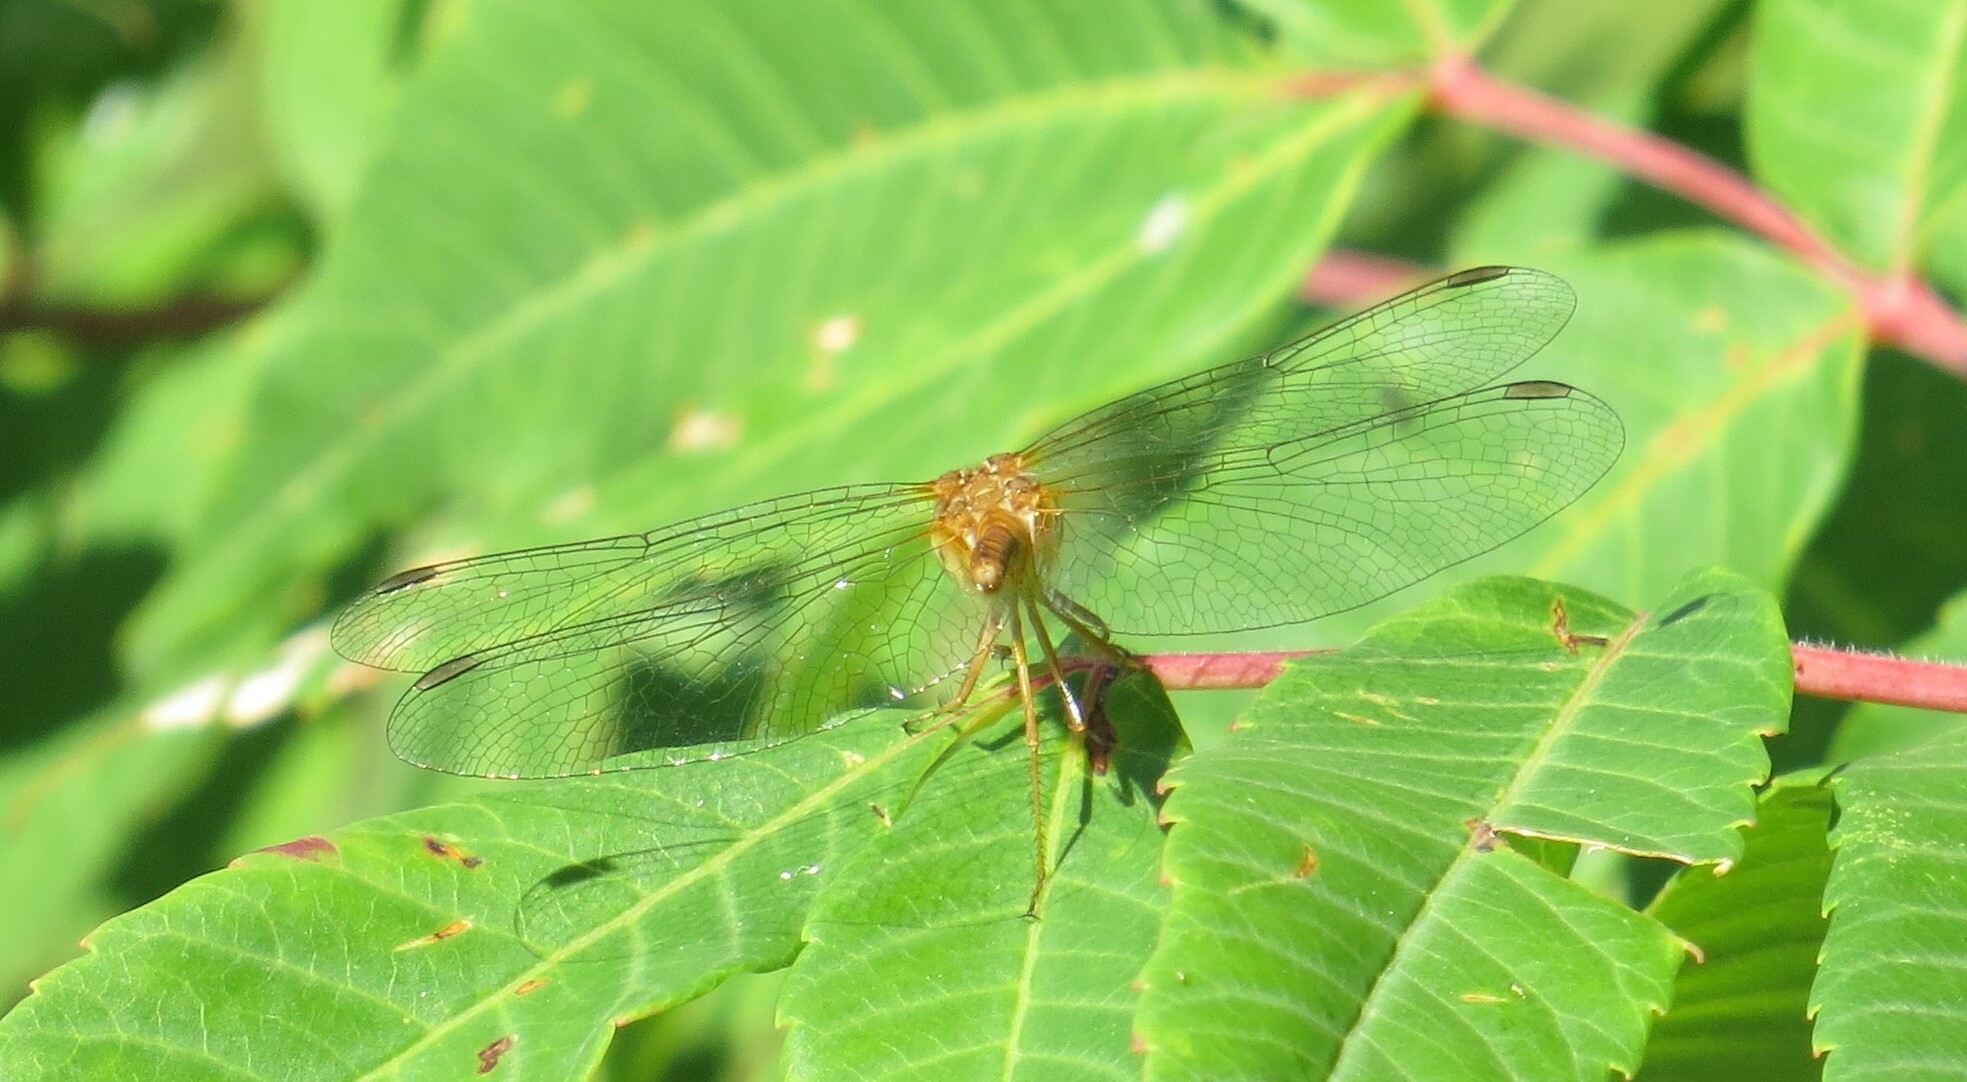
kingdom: Animalia
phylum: Arthropoda
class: Insecta
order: Odonata
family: Libellulidae
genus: Sympetrum
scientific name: Sympetrum vicinum
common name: Autumn meadowhawk
